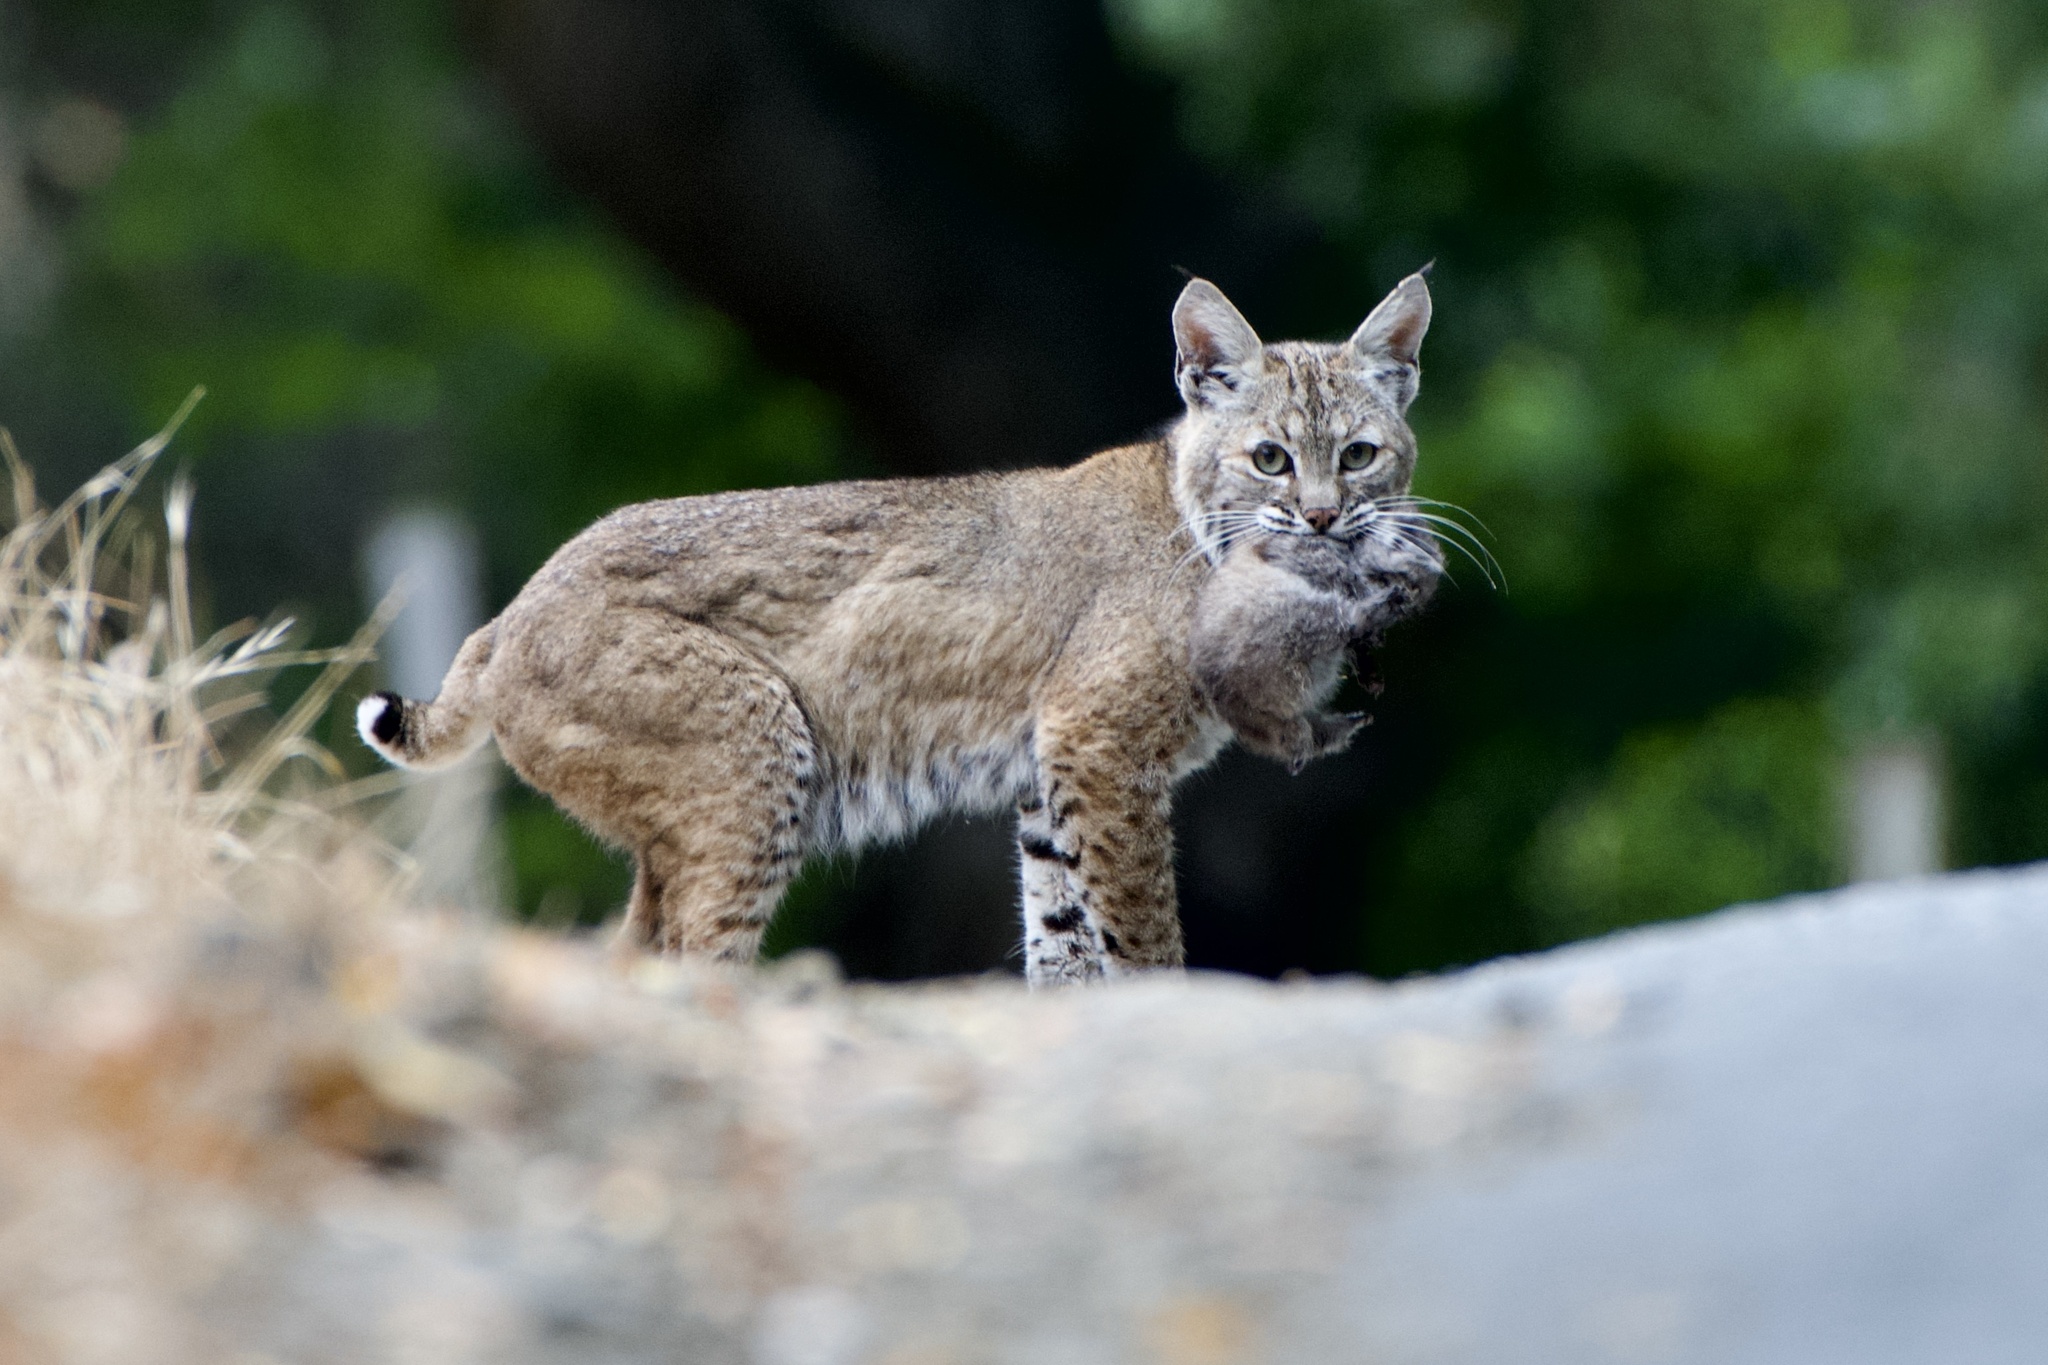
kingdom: Animalia
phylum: Chordata
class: Mammalia
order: Carnivora
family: Felidae
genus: Lynx
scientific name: Lynx rufus
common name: Bobcat
